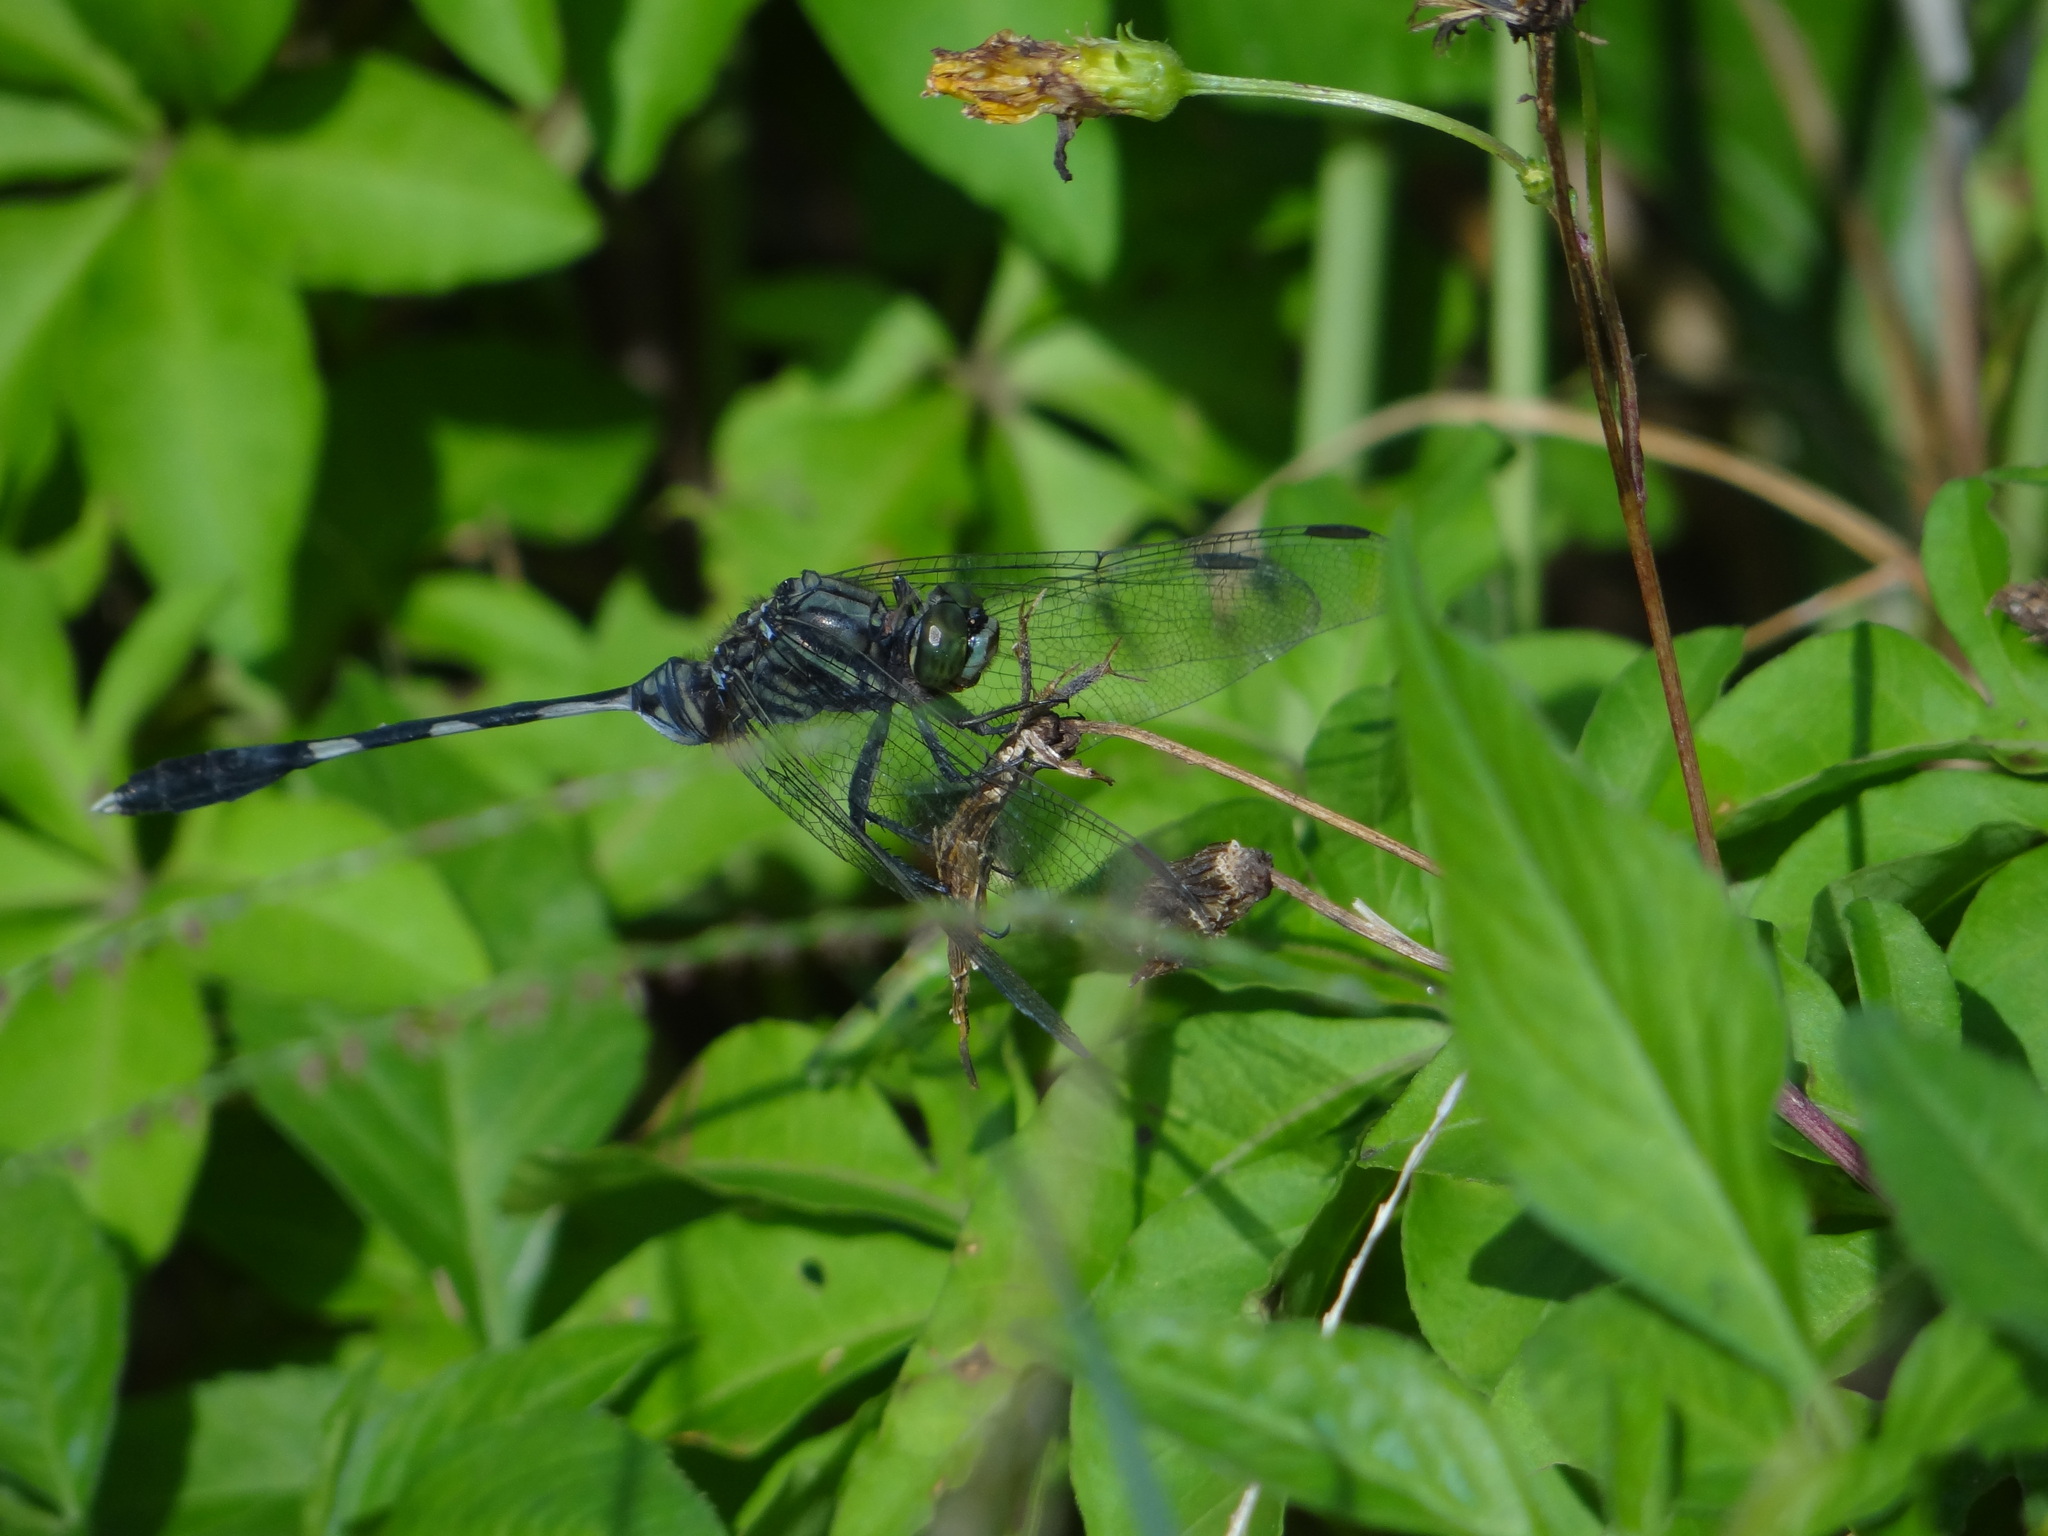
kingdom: Animalia
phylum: Arthropoda
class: Insecta
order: Odonata
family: Libellulidae
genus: Orthetrum
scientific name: Orthetrum sabina
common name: Slender skimmer
